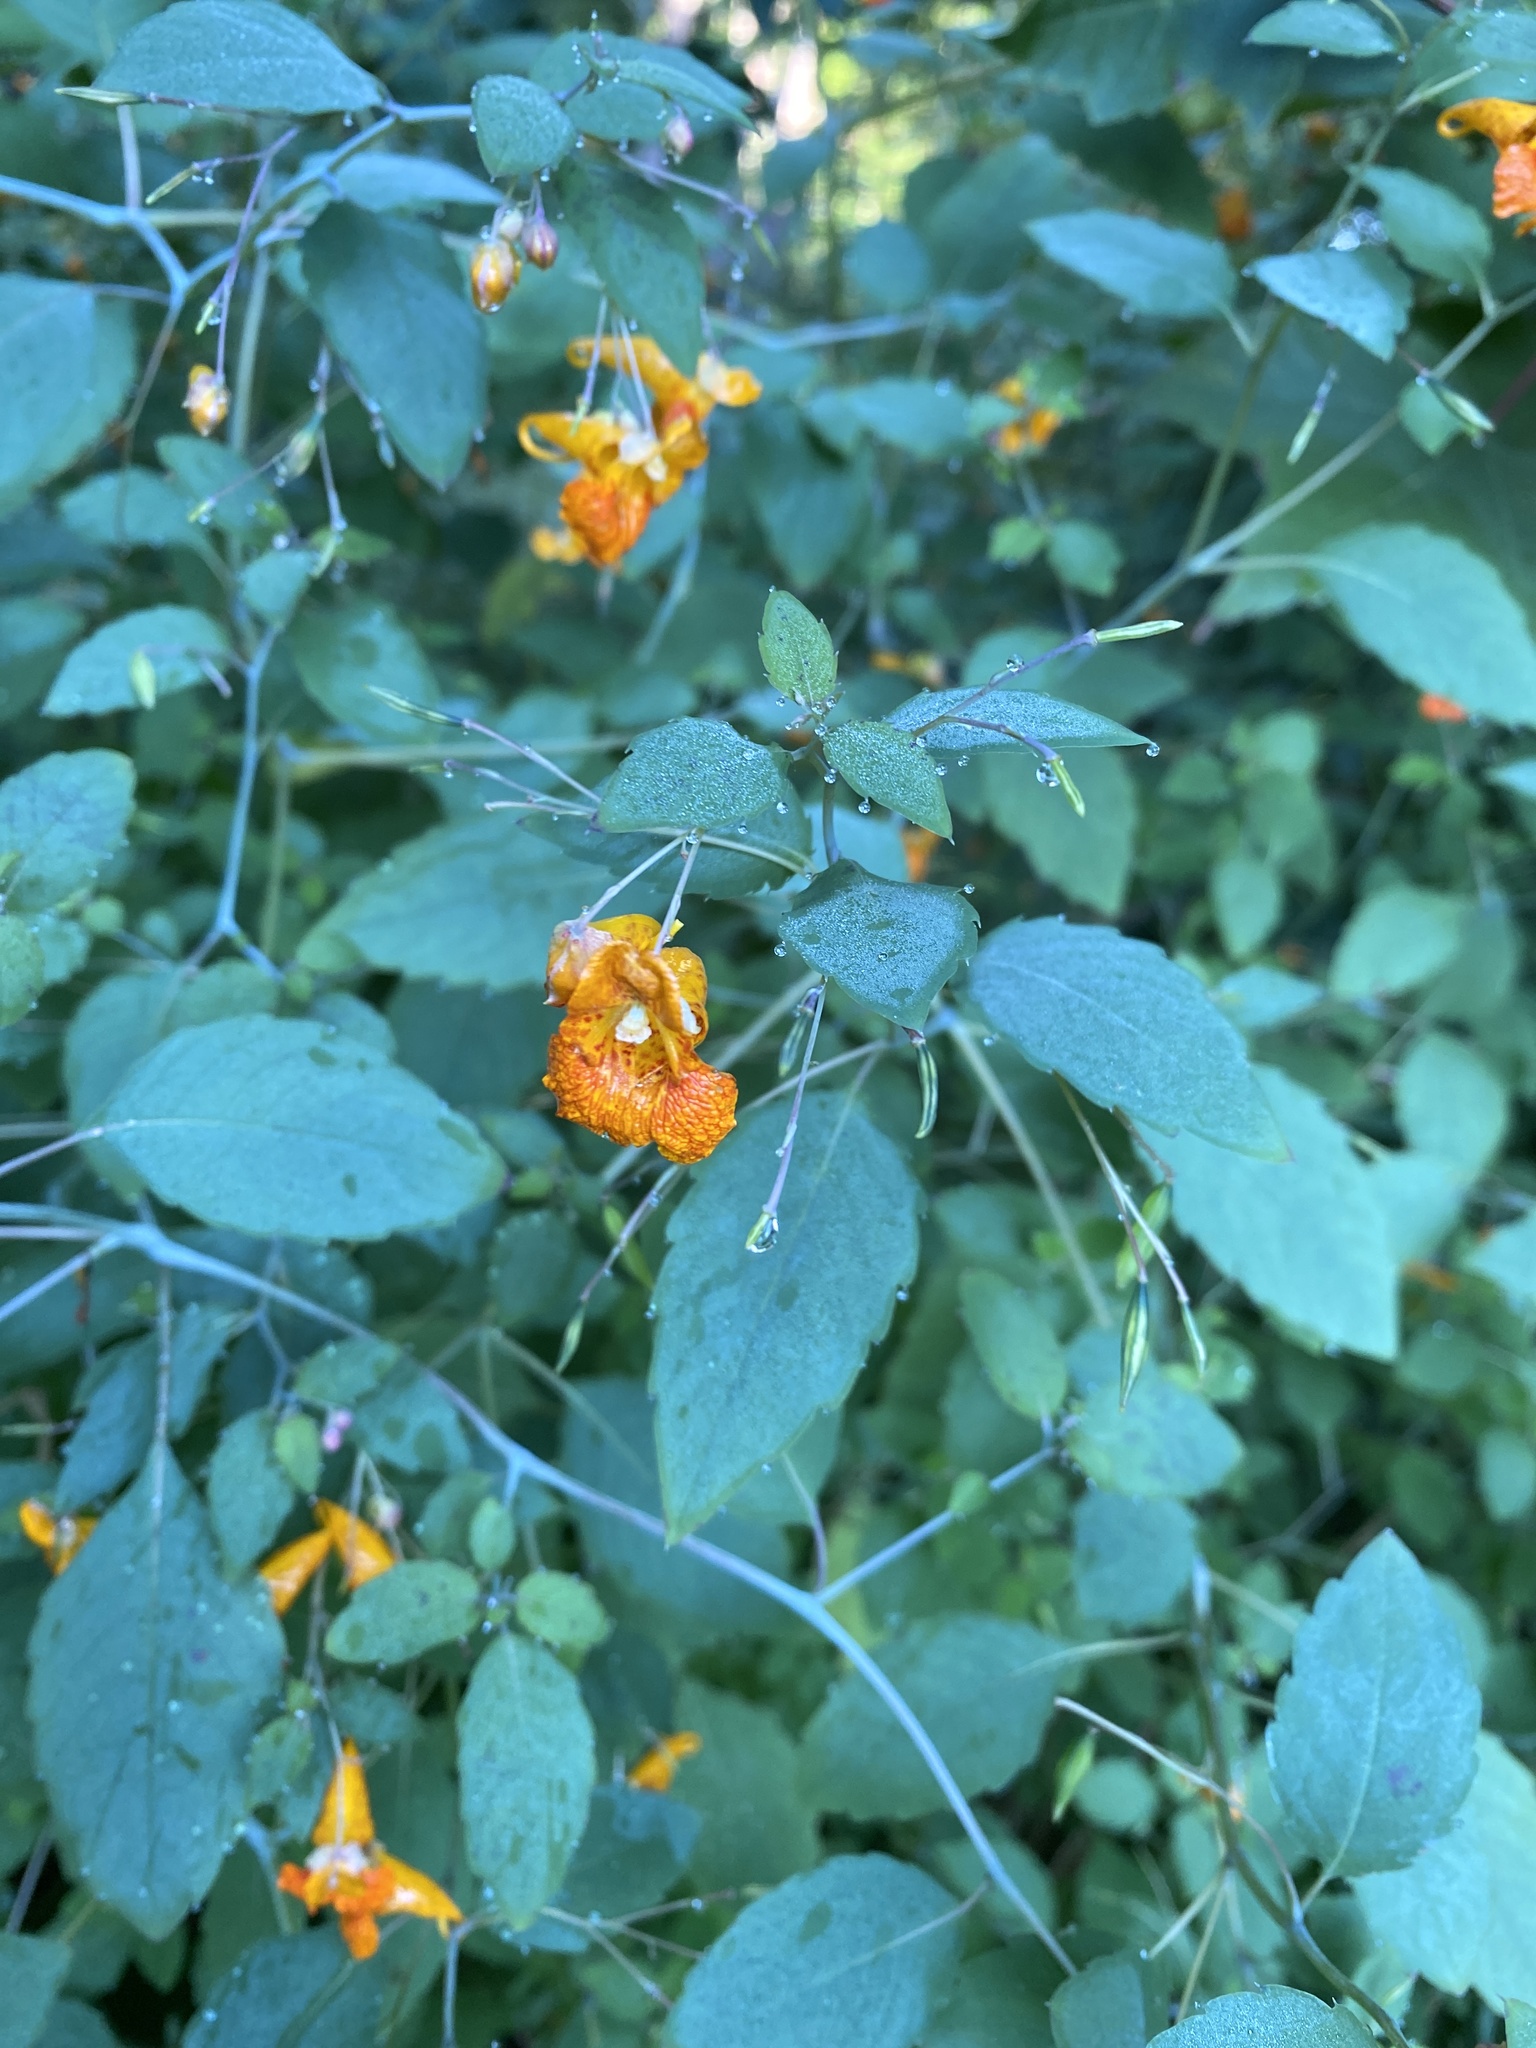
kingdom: Plantae
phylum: Tracheophyta
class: Magnoliopsida
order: Ericales
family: Balsaminaceae
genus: Impatiens
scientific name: Impatiens capensis
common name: Orange balsam
